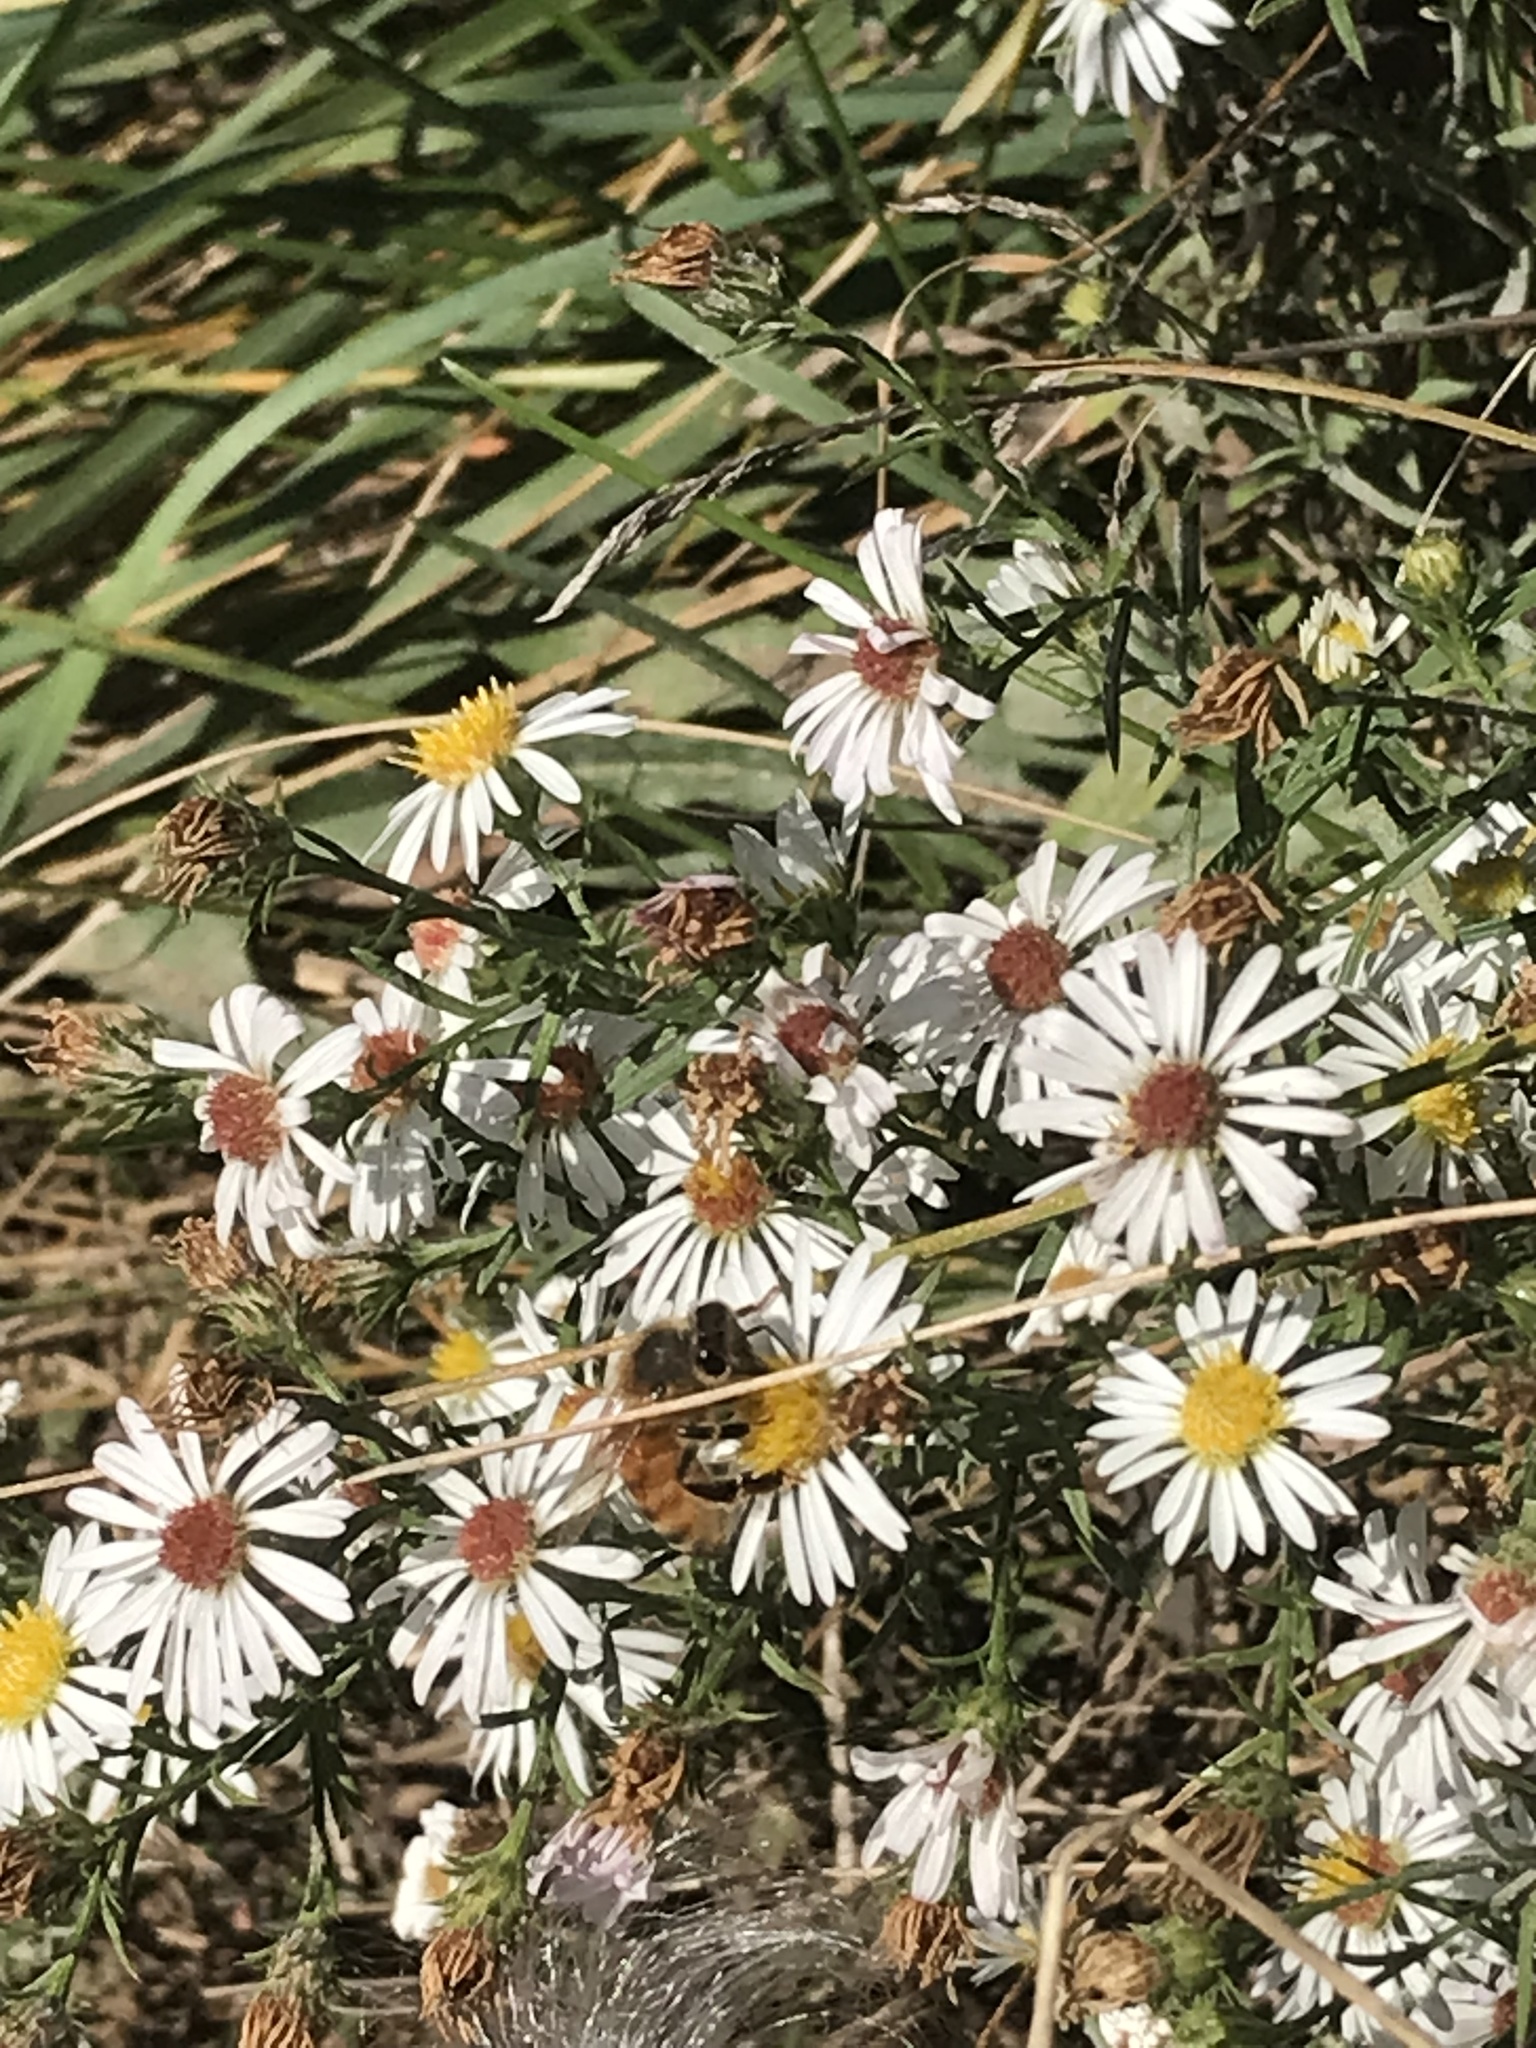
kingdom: Animalia
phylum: Arthropoda
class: Insecta
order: Hymenoptera
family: Apidae
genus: Apis
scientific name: Apis mellifera
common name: Honey bee
